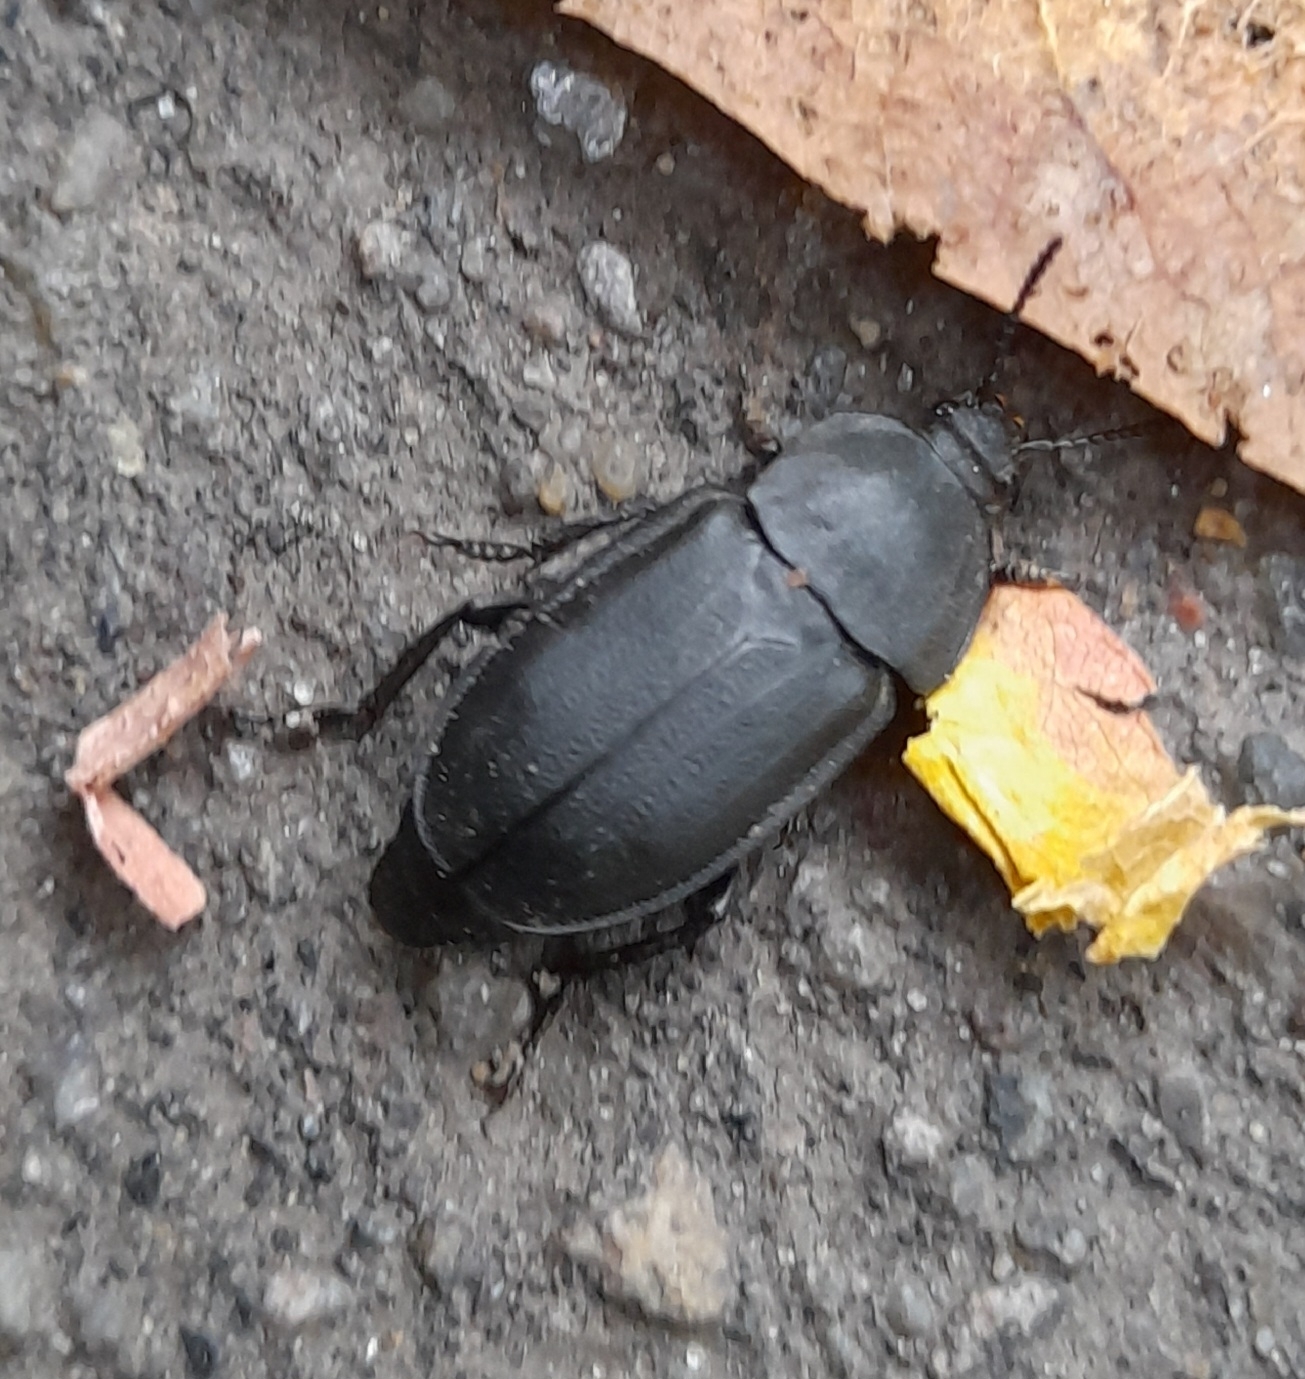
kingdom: Animalia
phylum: Arthropoda
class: Insecta
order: Coleoptera
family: Staphylinidae
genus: Silpha
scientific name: Silpha obscura
